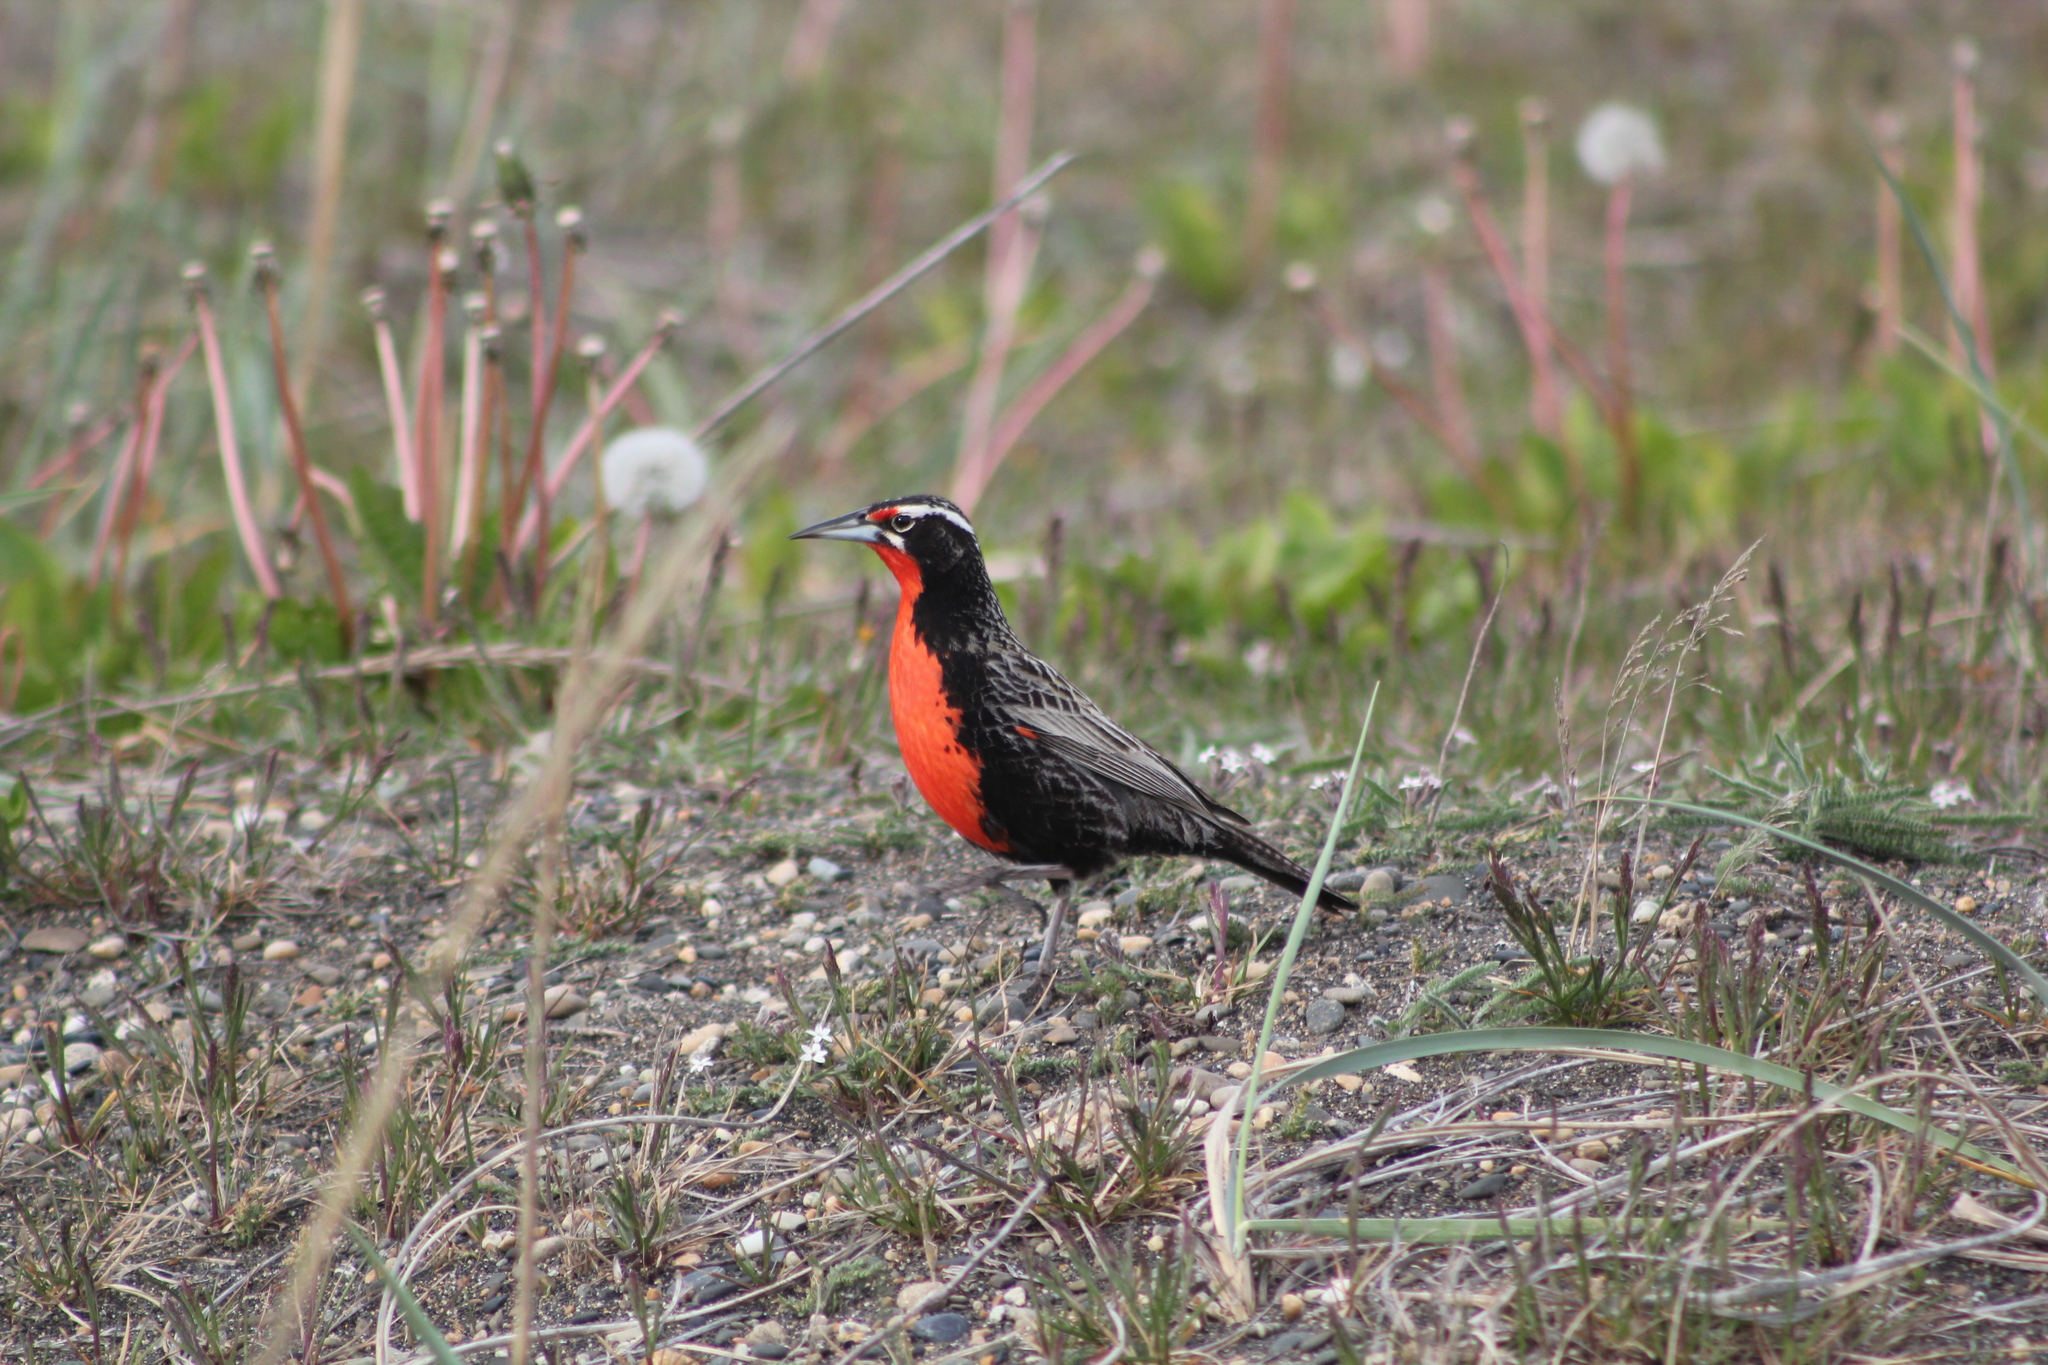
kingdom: Animalia
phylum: Chordata
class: Aves
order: Passeriformes
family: Icteridae
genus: Sturnella
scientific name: Sturnella loyca
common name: Long-tailed meadowlark
